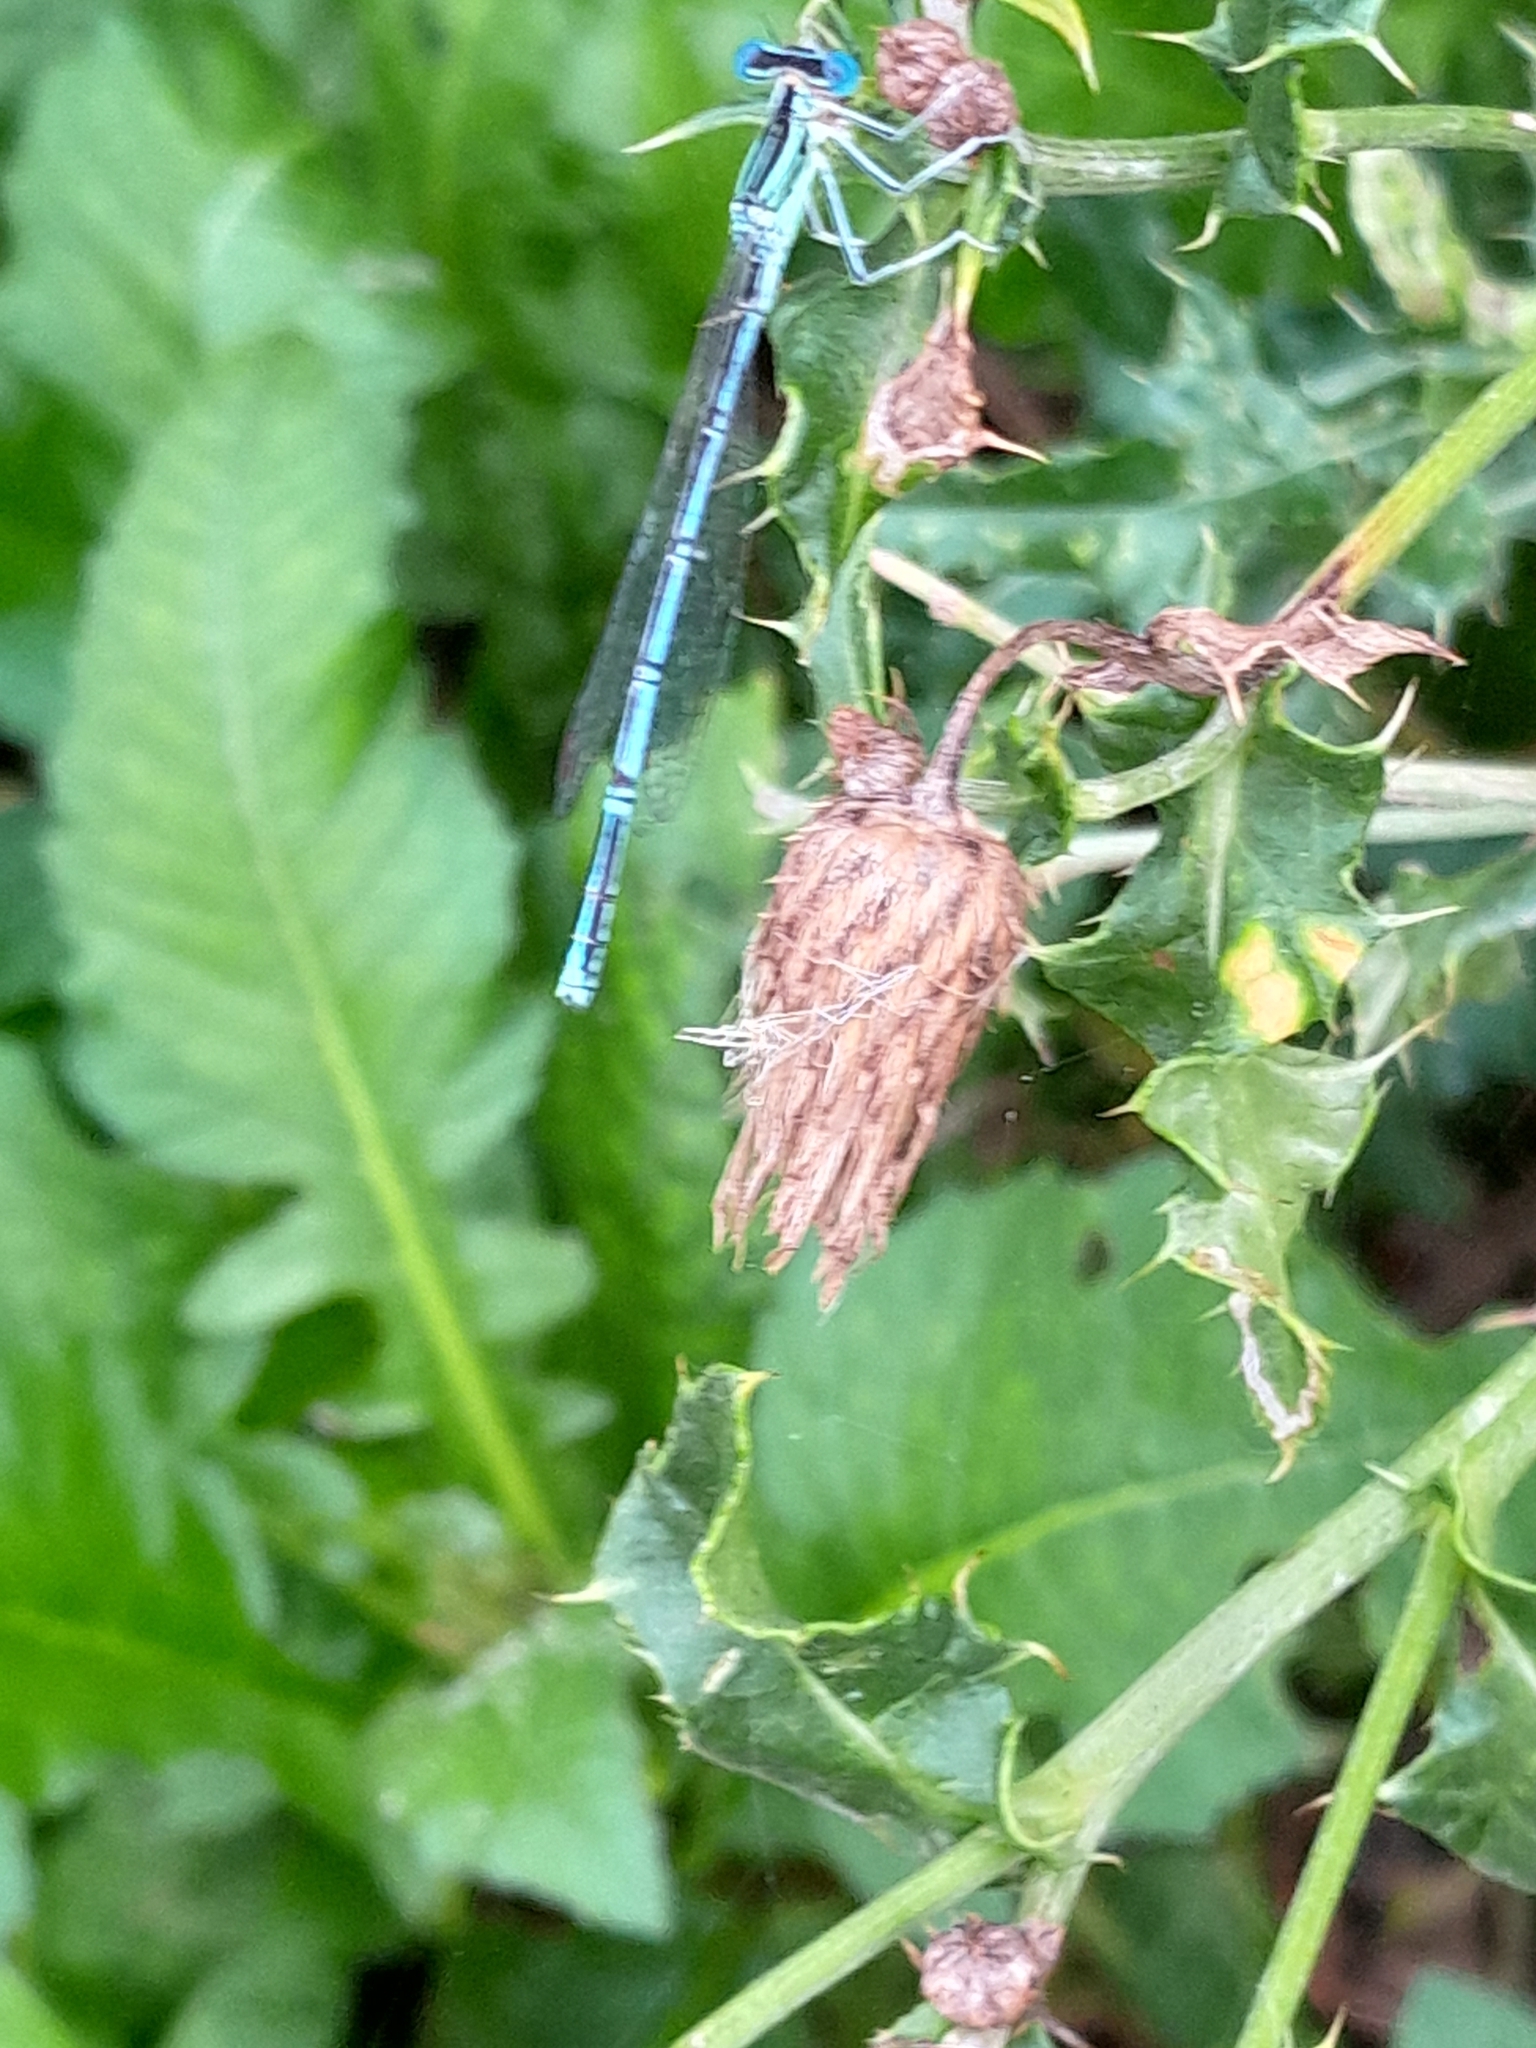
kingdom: Animalia
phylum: Arthropoda
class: Insecta
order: Odonata
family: Platycnemididae
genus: Platycnemis
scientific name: Platycnemis pennipes
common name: White-legged damselfly
